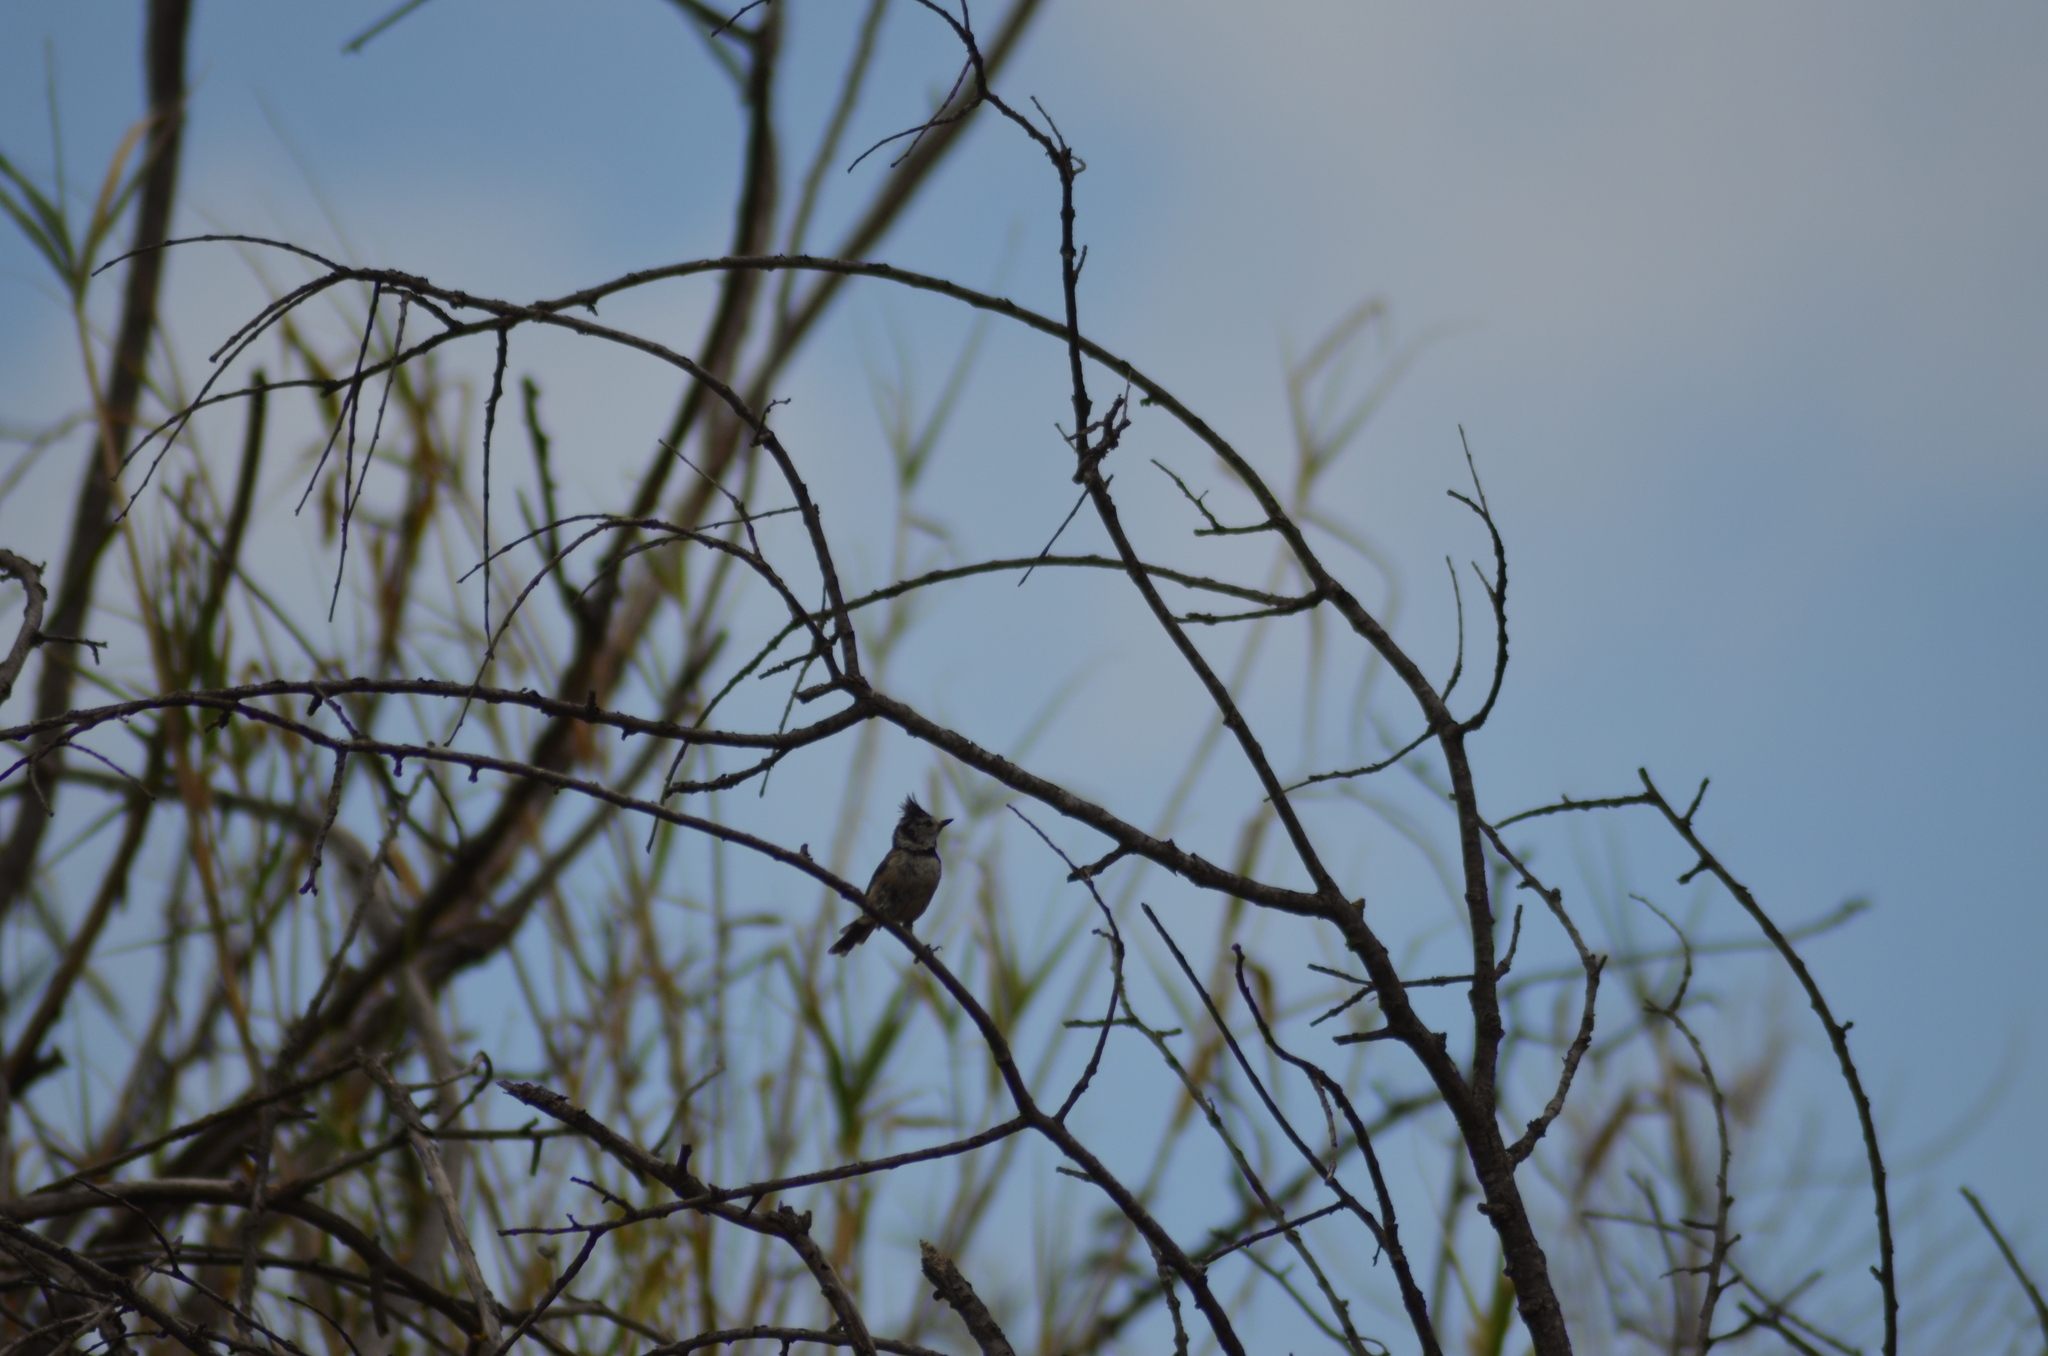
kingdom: Animalia
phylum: Chordata
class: Aves
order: Passeriformes
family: Paridae
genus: Lophophanes
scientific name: Lophophanes cristatus
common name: European crested tit
